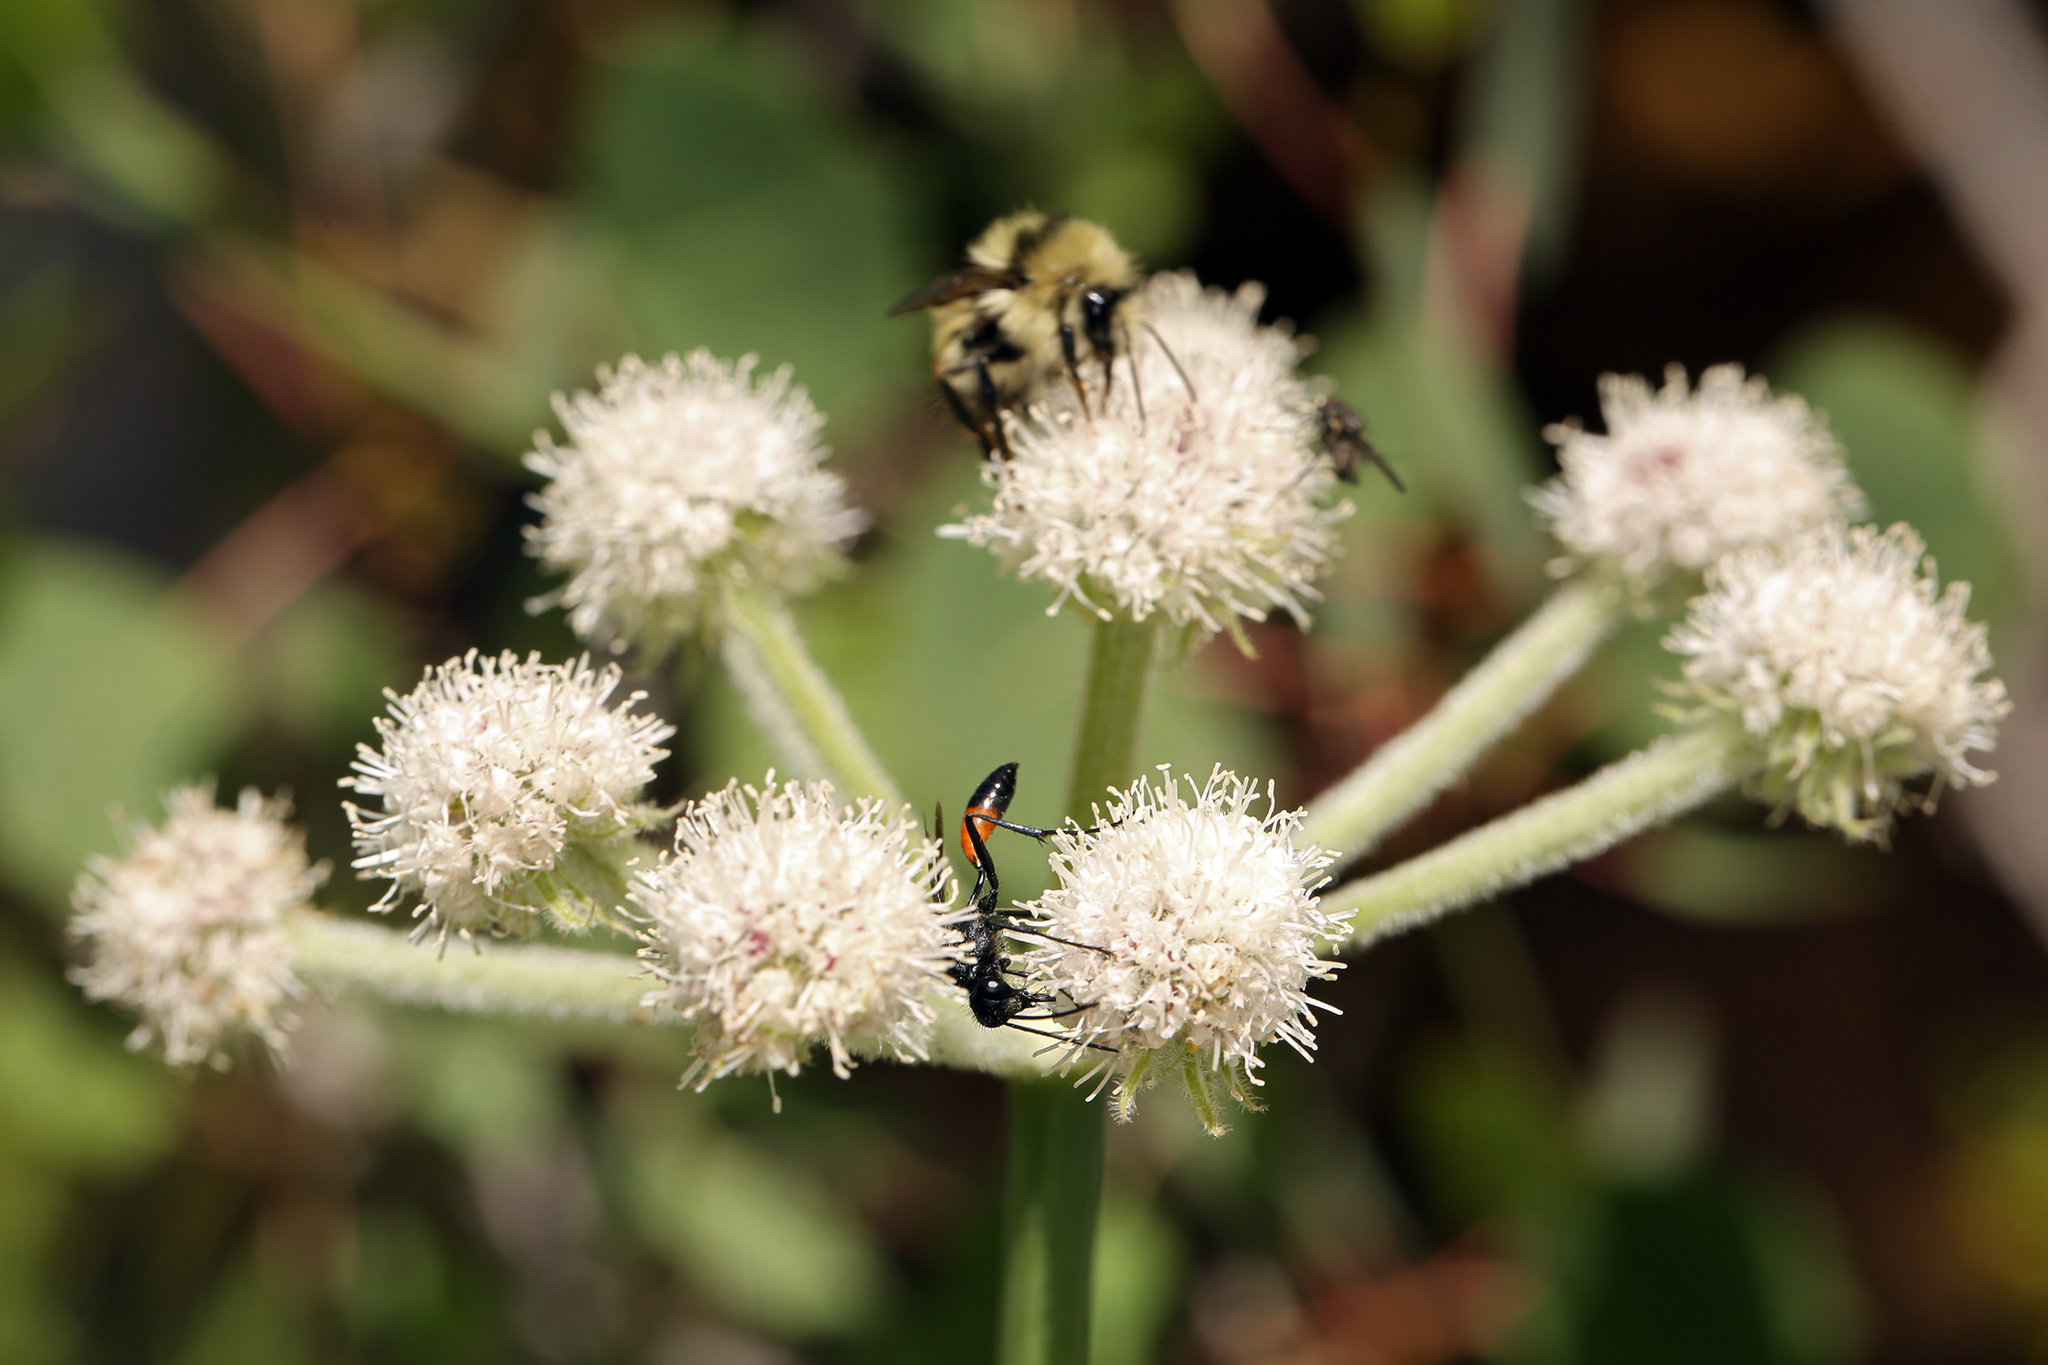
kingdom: Plantae
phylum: Tracheophyta
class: Magnoliopsida
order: Apiales
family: Apiaceae
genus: Angelica
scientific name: Angelica capitellata
